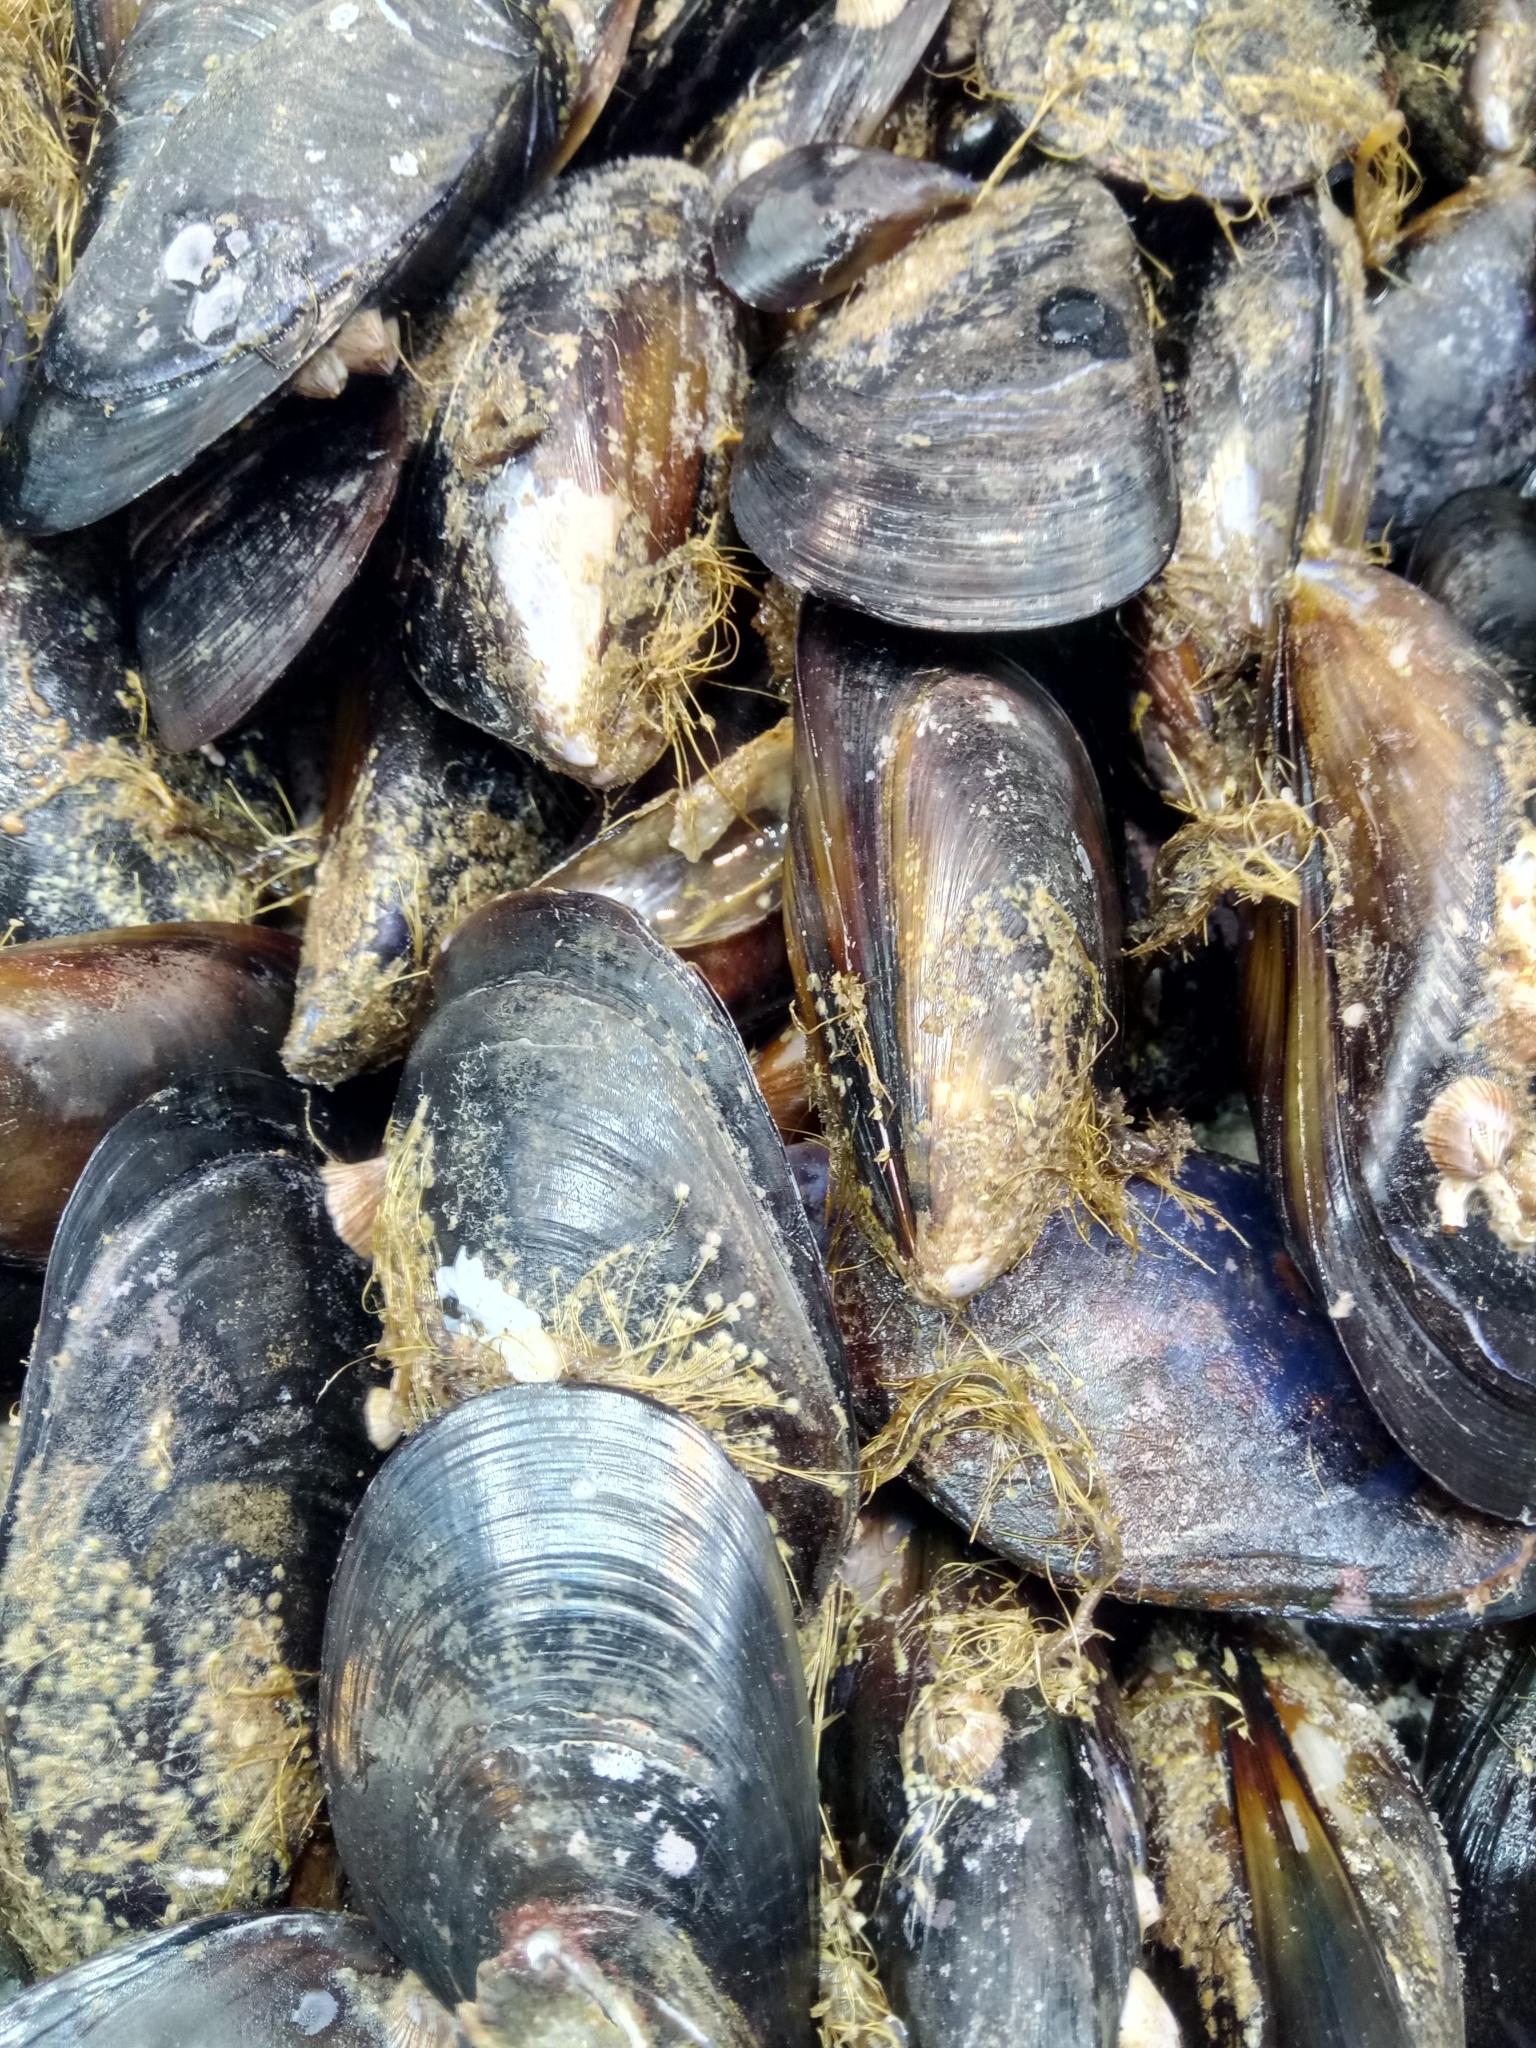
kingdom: Animalia
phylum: Mollusca
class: Bivalvia
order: Mytilida
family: Mytilidae
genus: Mytilus
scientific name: Mytilus galloprovincialis
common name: Mediterranean mussel
